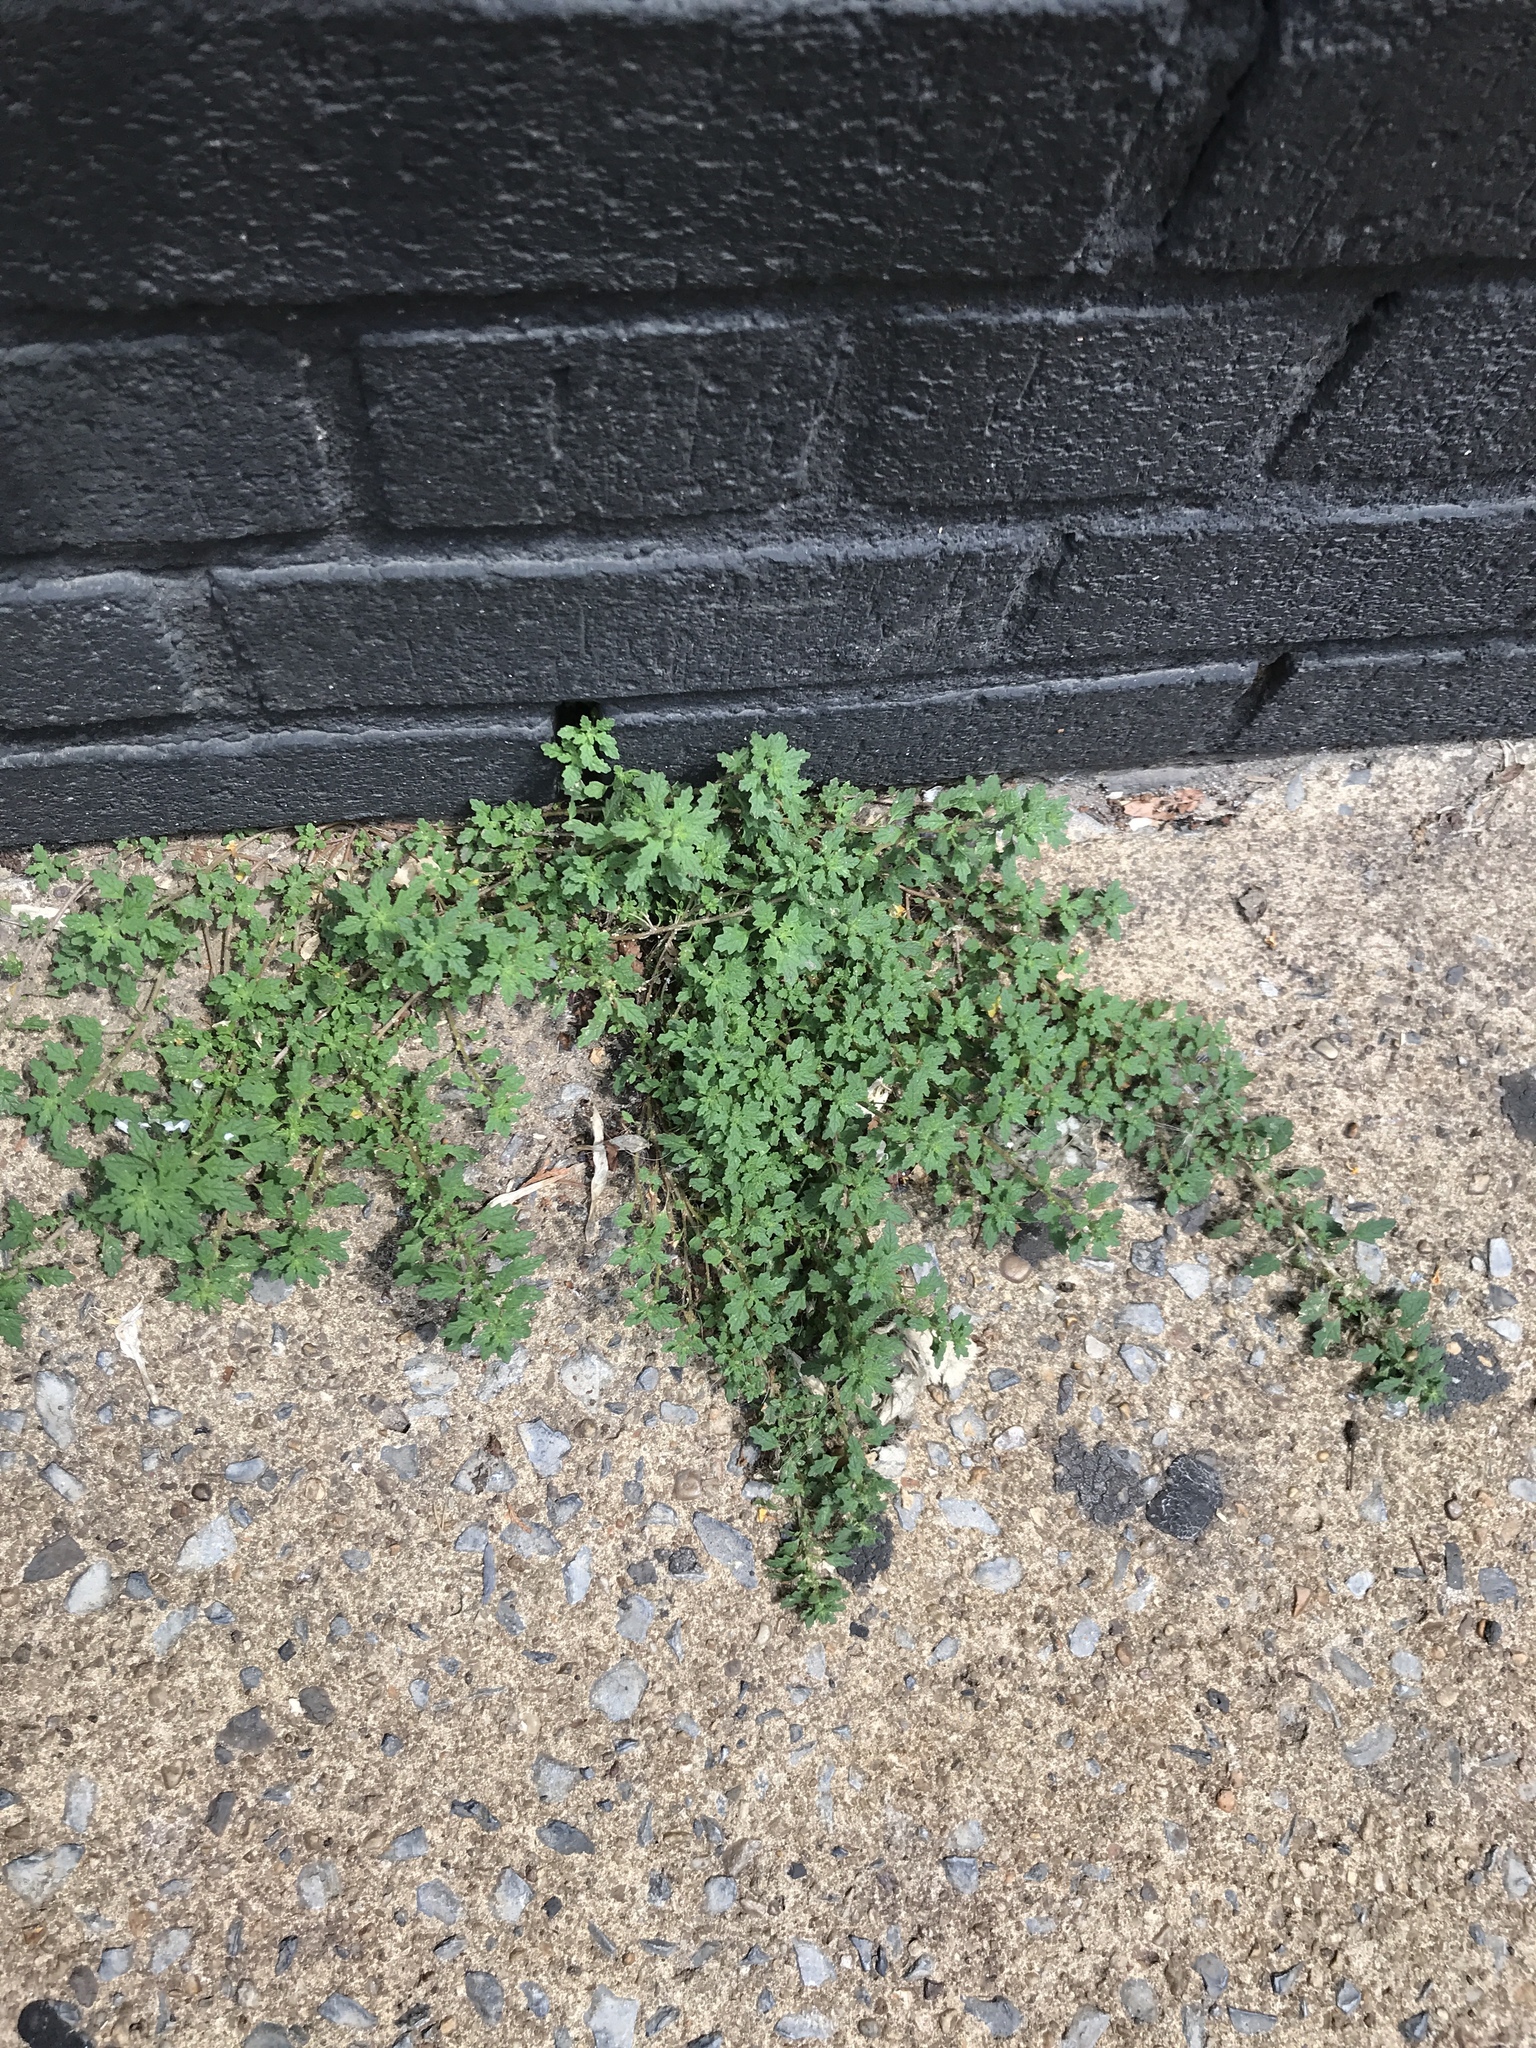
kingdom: Plantae
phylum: Tracheophyta
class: Magnoliopsida
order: Caryophyllales
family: Amaranthaceae
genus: Dysphania
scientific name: Dysphania pumilio
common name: Clammy goosefoot
